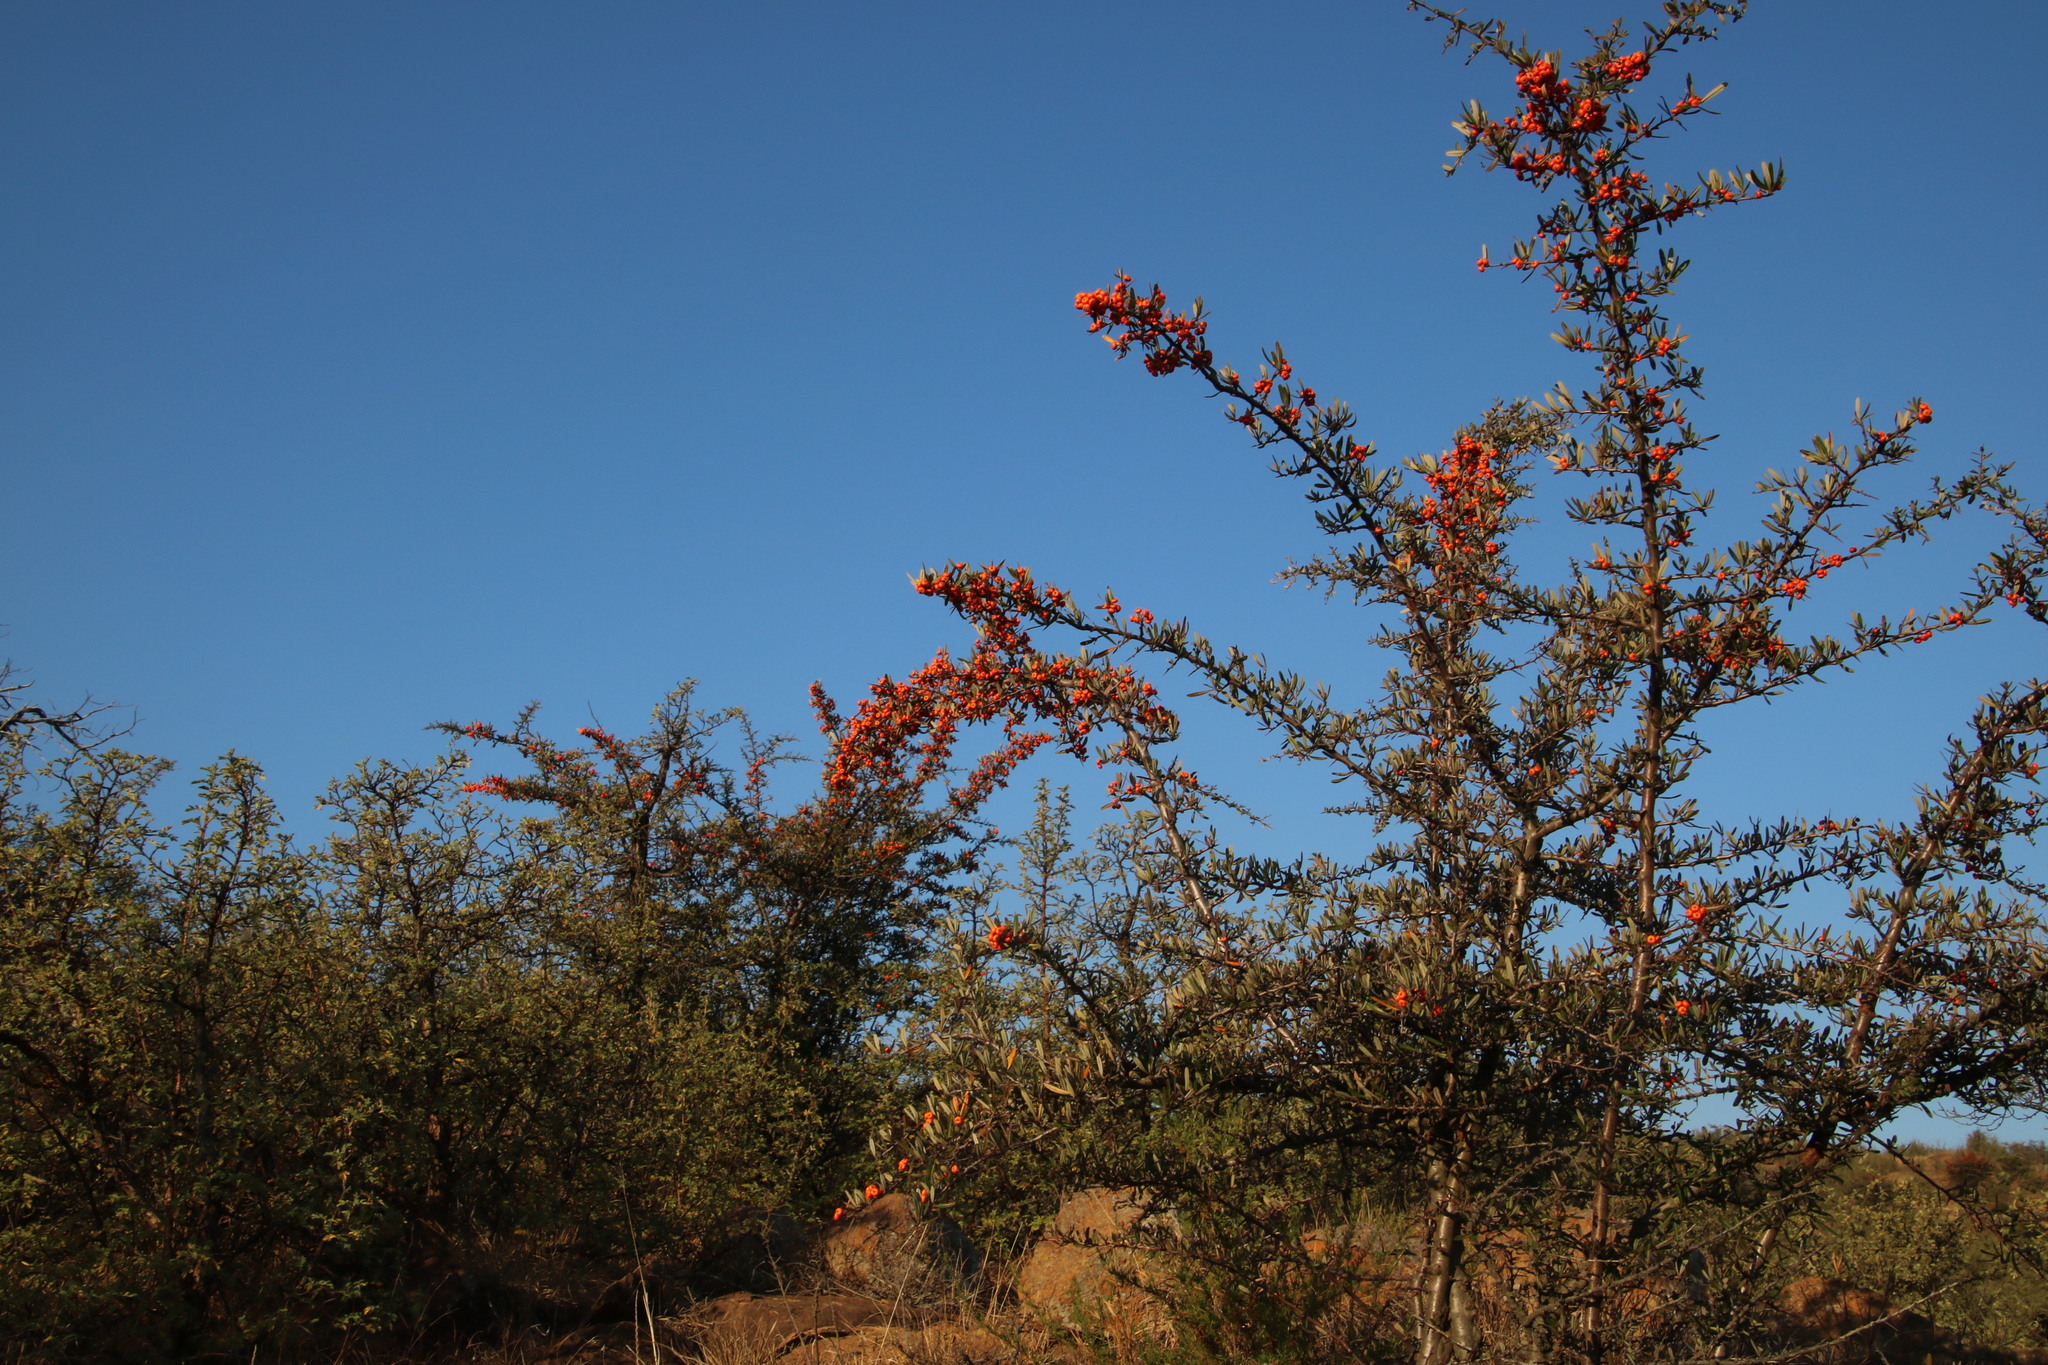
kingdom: Plantae
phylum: Tracheophyta
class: Magnoliopsida
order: Rosales
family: Rosaceae
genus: Pyracantha
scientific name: Pyracantha angustifolia
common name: Narrowleaf firethorn
